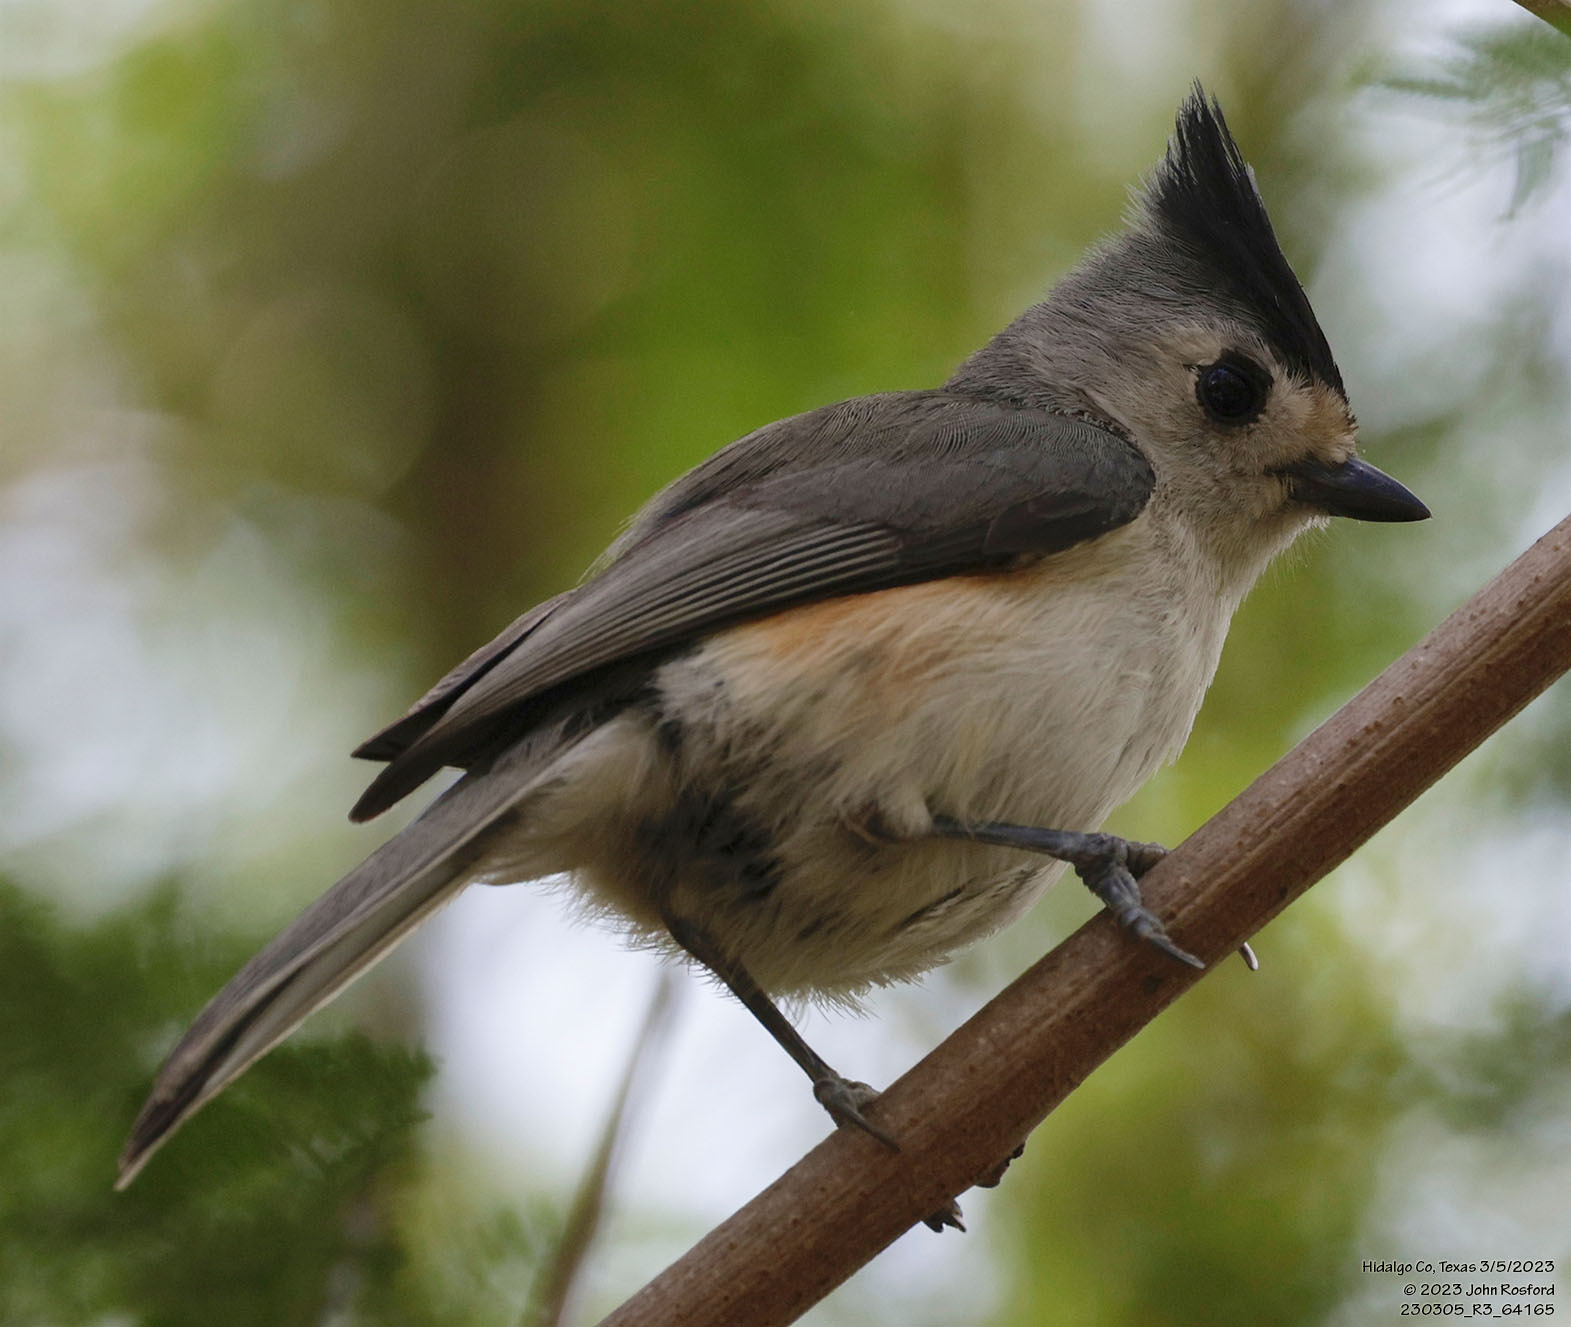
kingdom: Animalia
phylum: Chordata
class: Aves
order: Passeriformes
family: Paridae
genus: Baeolophus
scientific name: Baeolophus atricristatus
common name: Black-crested titmouse
